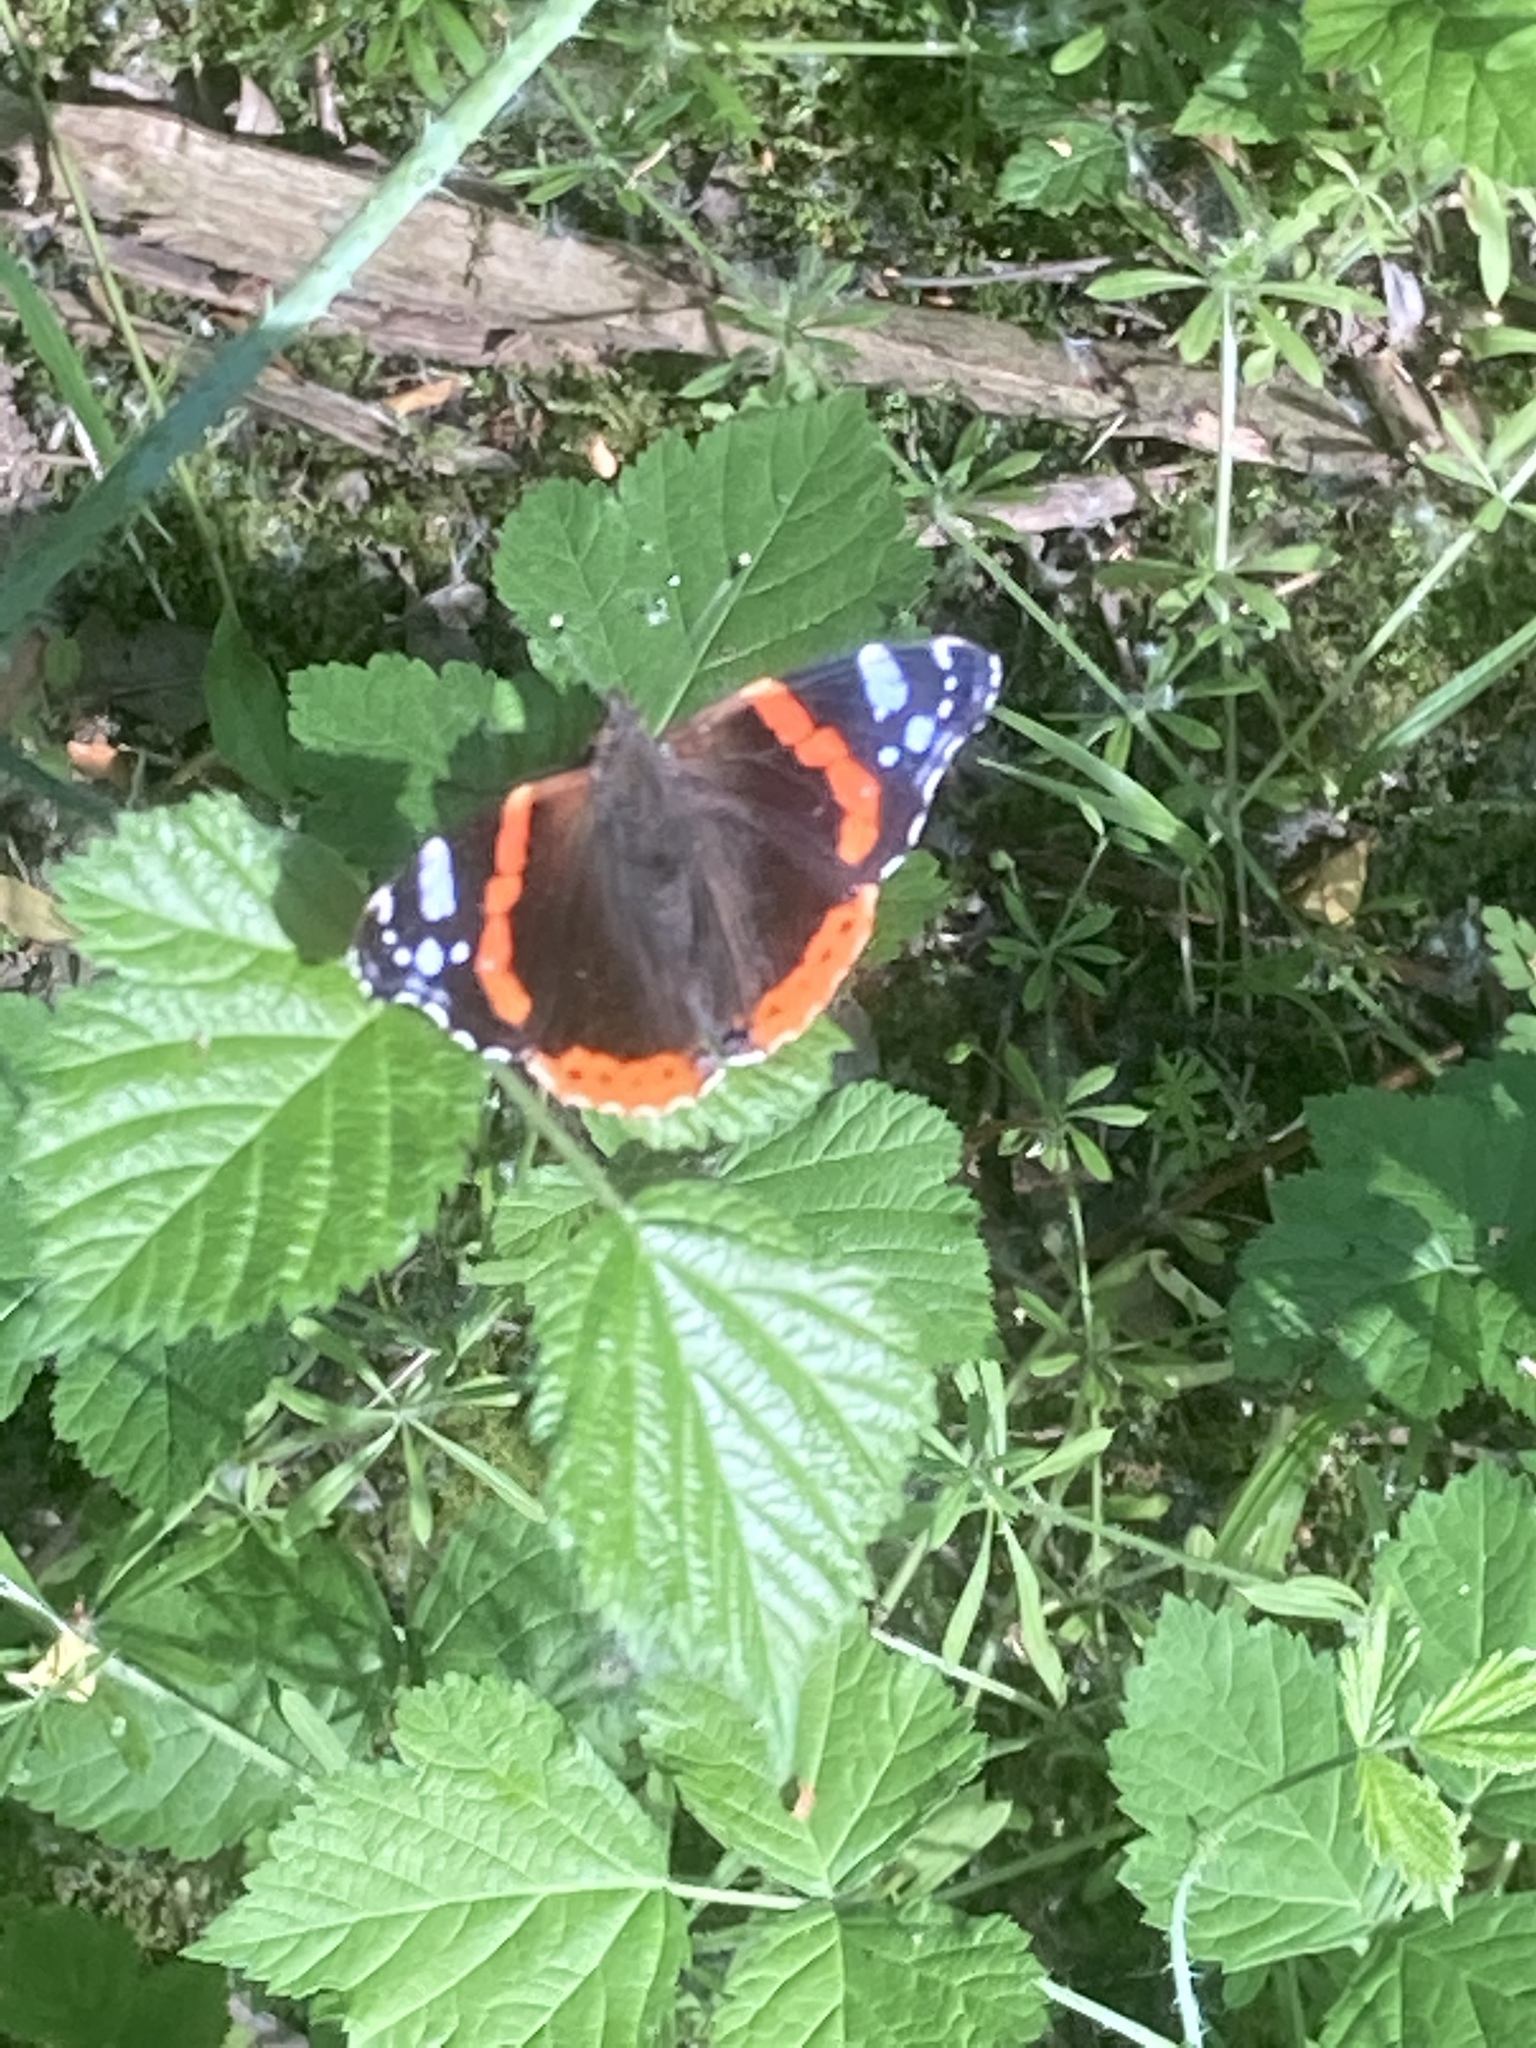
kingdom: Animalia
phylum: Arthropoda
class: Insecta
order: Lepidoptera
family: Nymphalidae
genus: Vanessa
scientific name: Vanessa atalanta
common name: Red admiral
